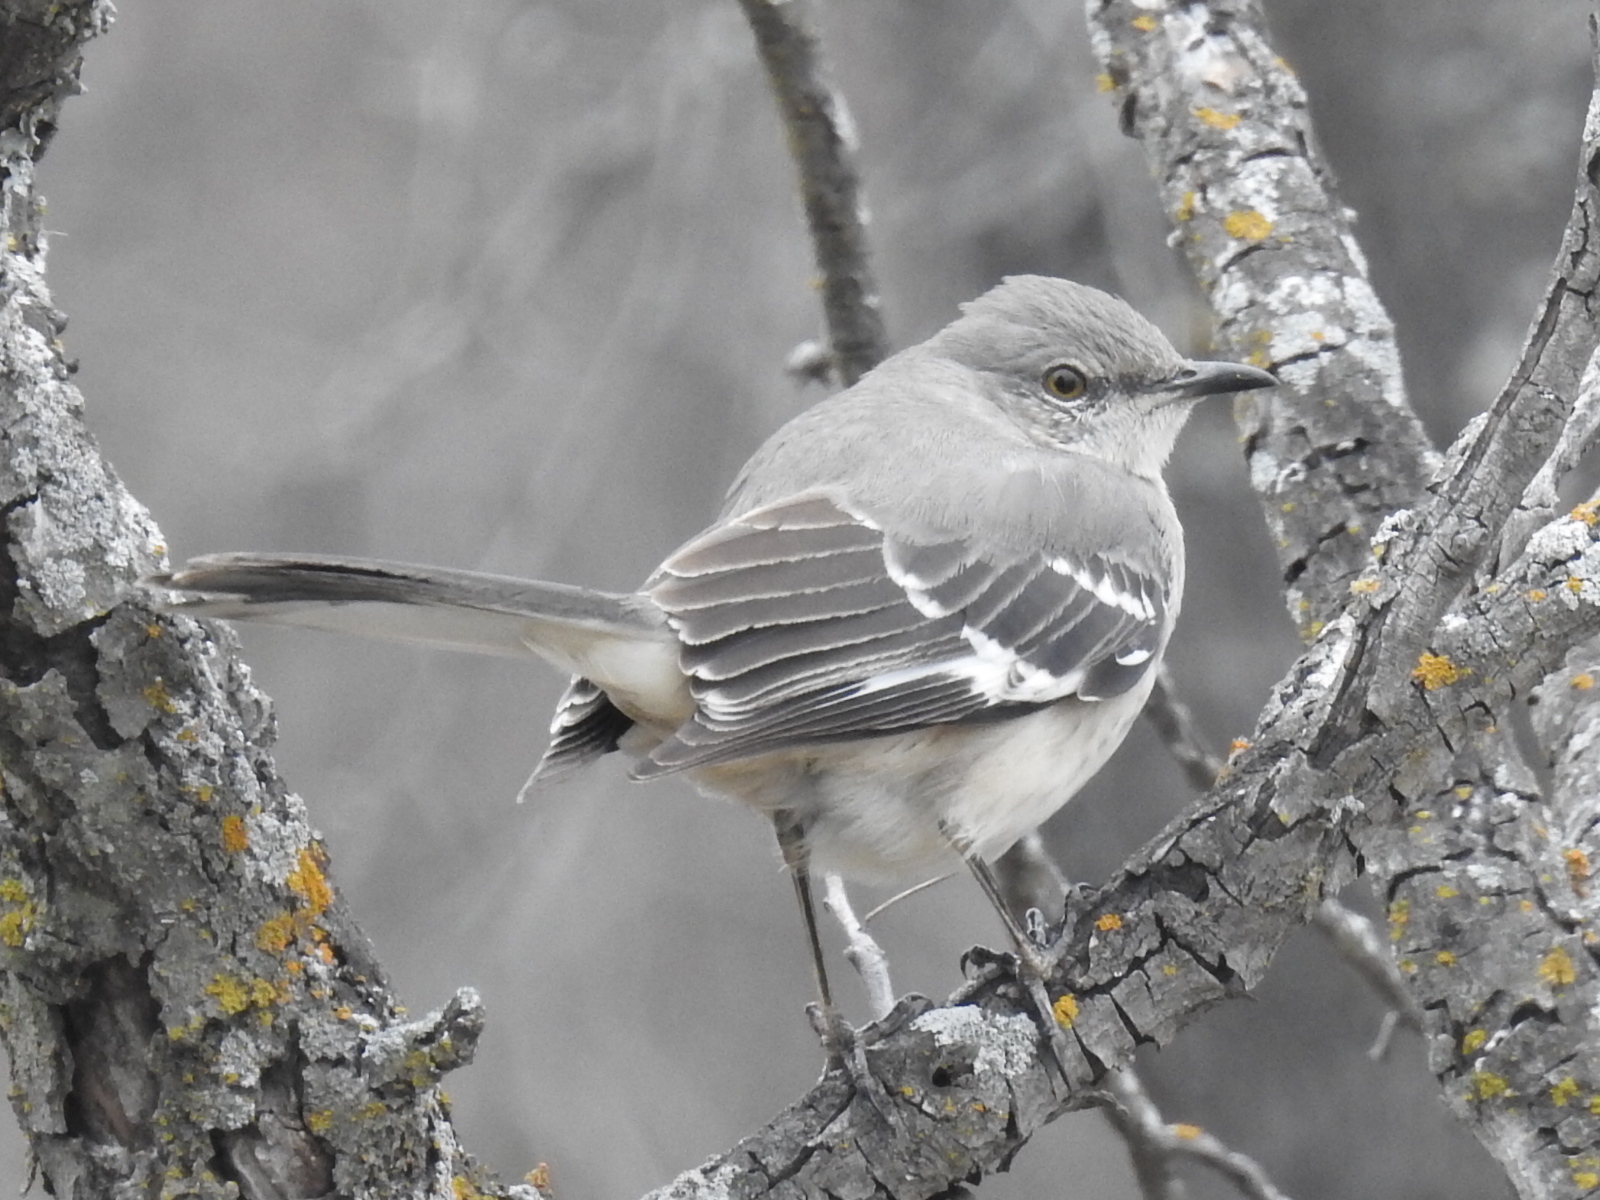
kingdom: Animalia
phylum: Chordata
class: Aves
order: Passeriformes
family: Mimidae
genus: Mimus
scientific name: Mimus polyglottos
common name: Northern mockingbird
